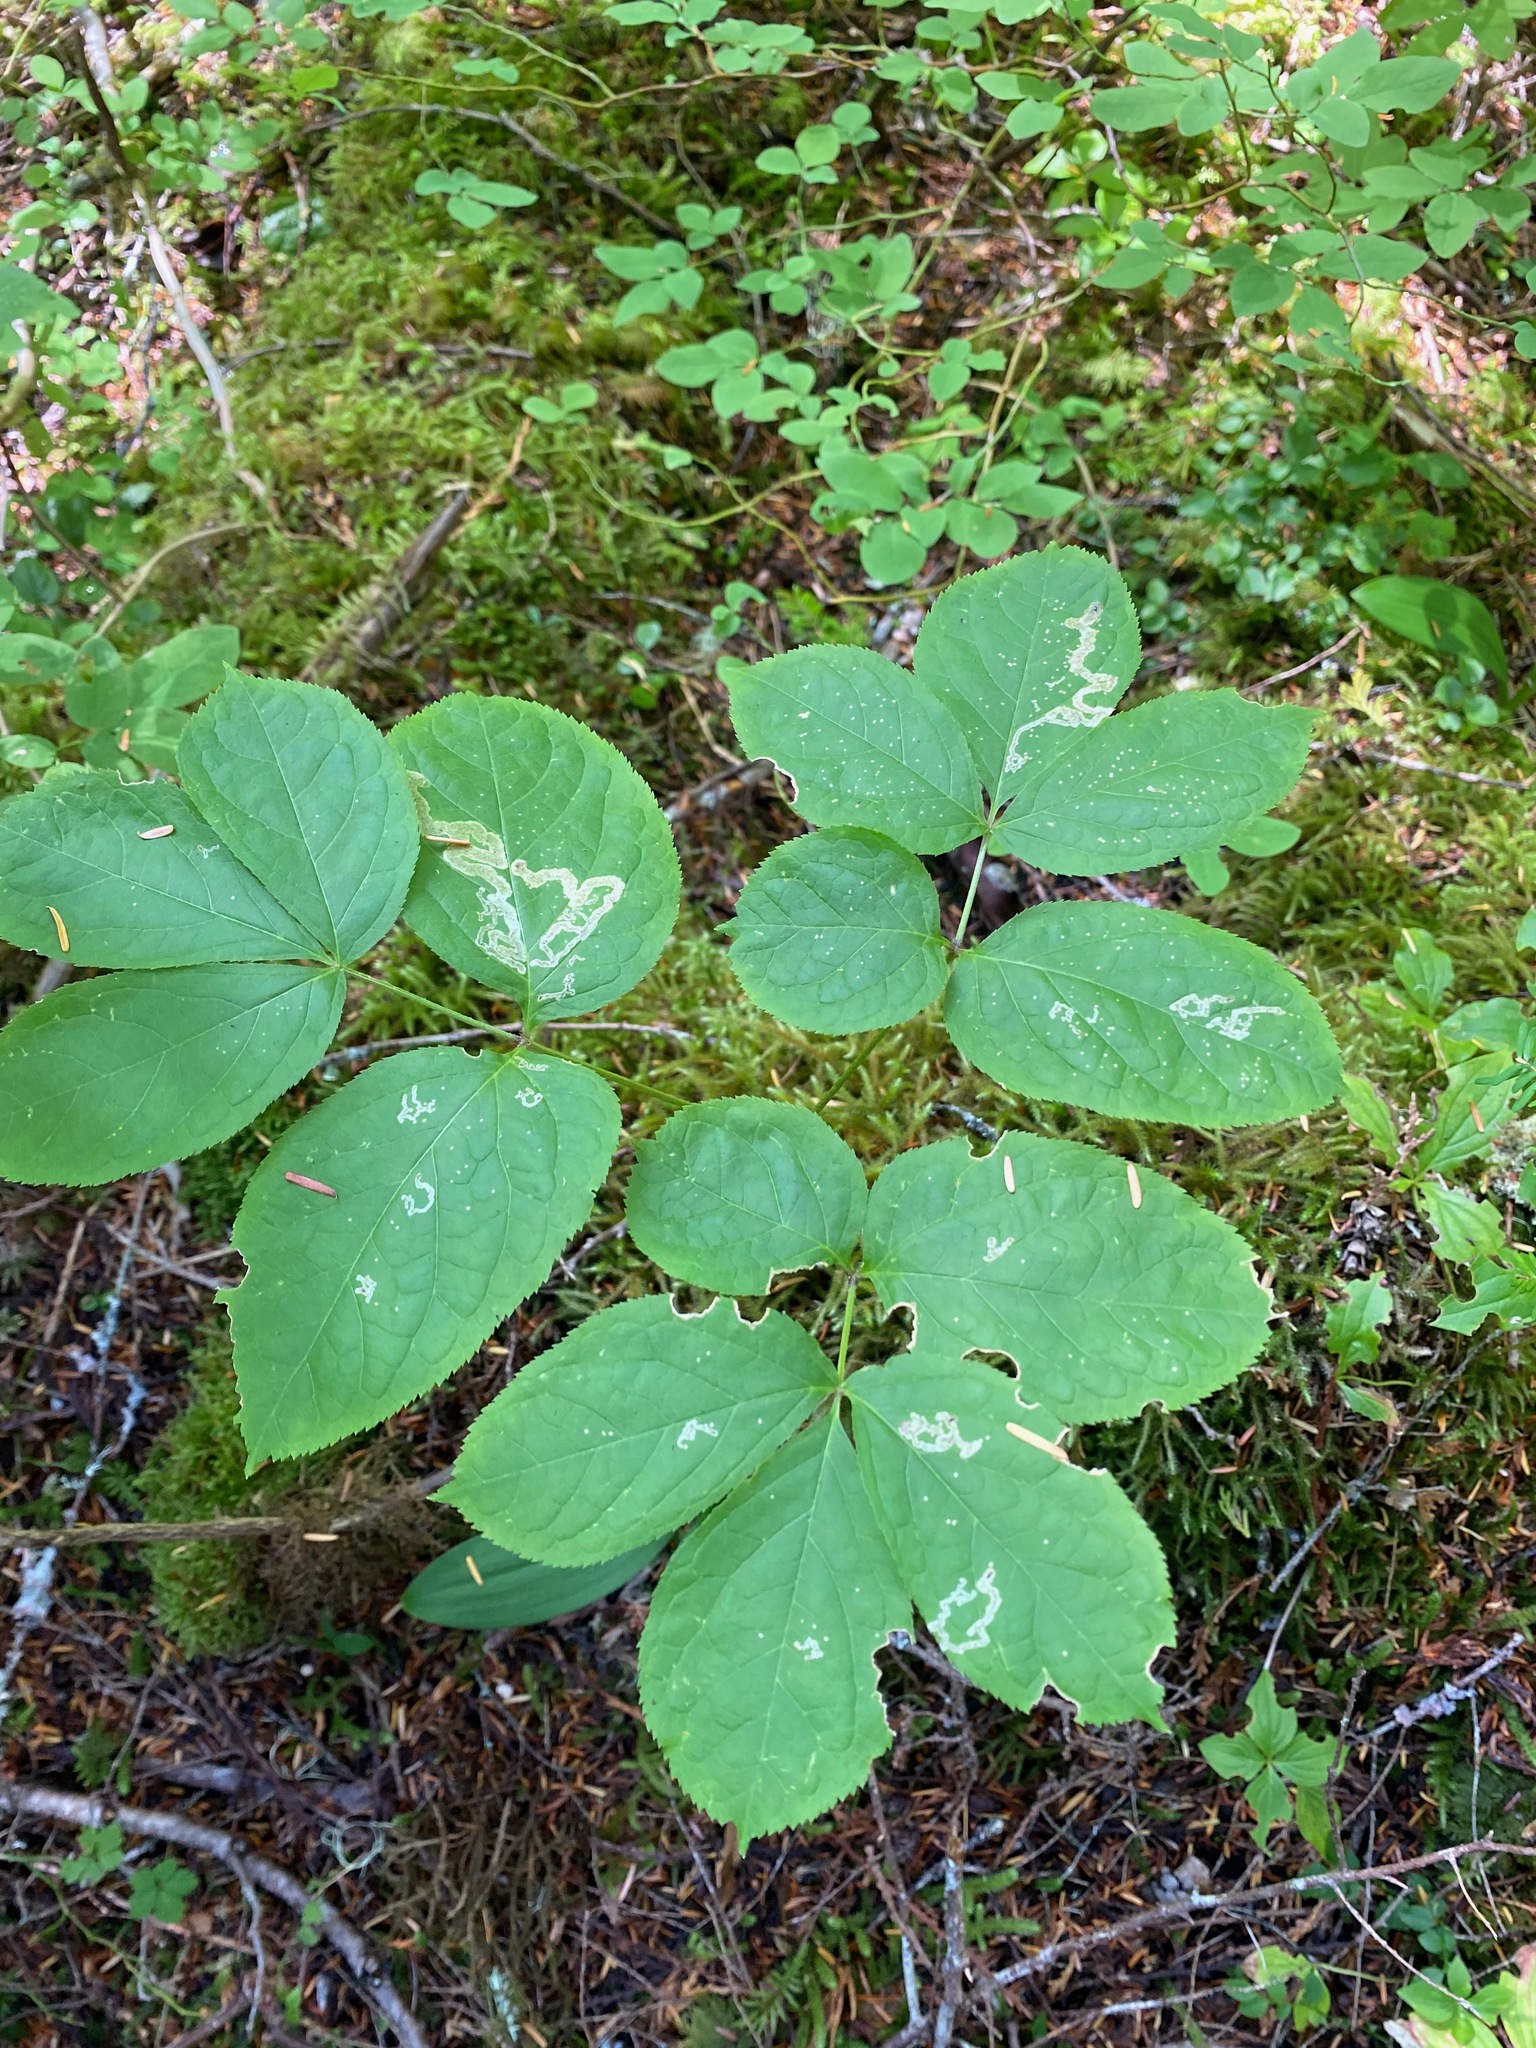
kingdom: Plantae
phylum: Tracheophyta
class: Magnoliopsida
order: Apiales
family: Araliaceae
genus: Aralia
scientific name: Aralia nudicaulis
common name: Wild sarsaparilla
